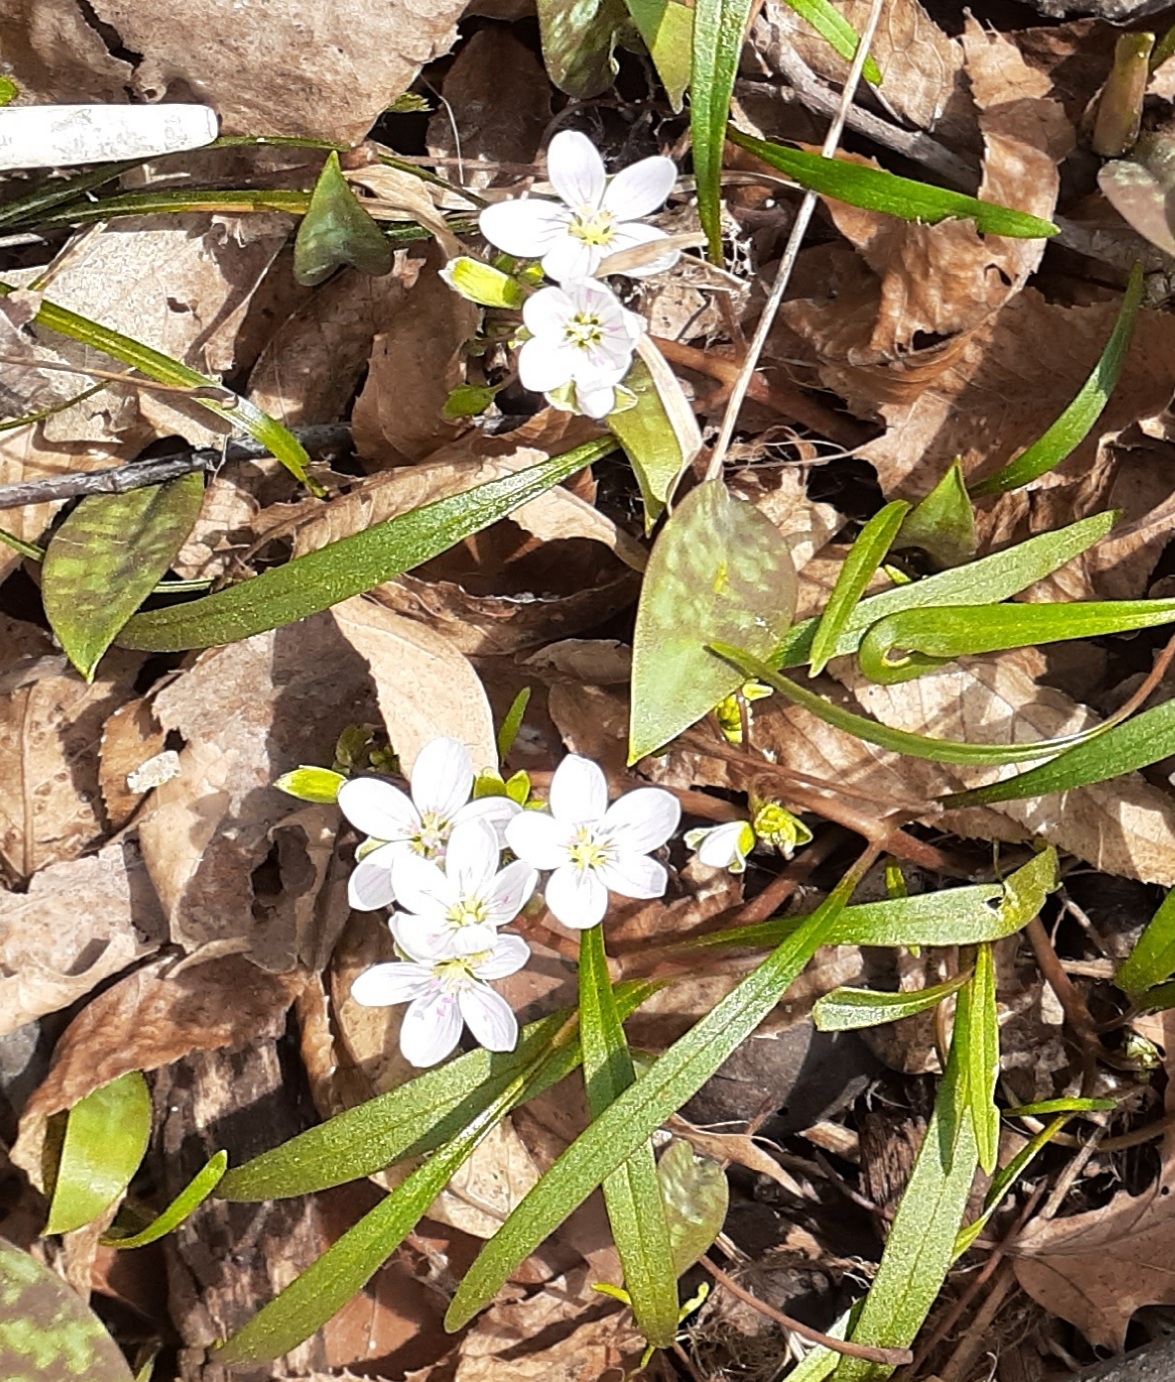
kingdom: Plantae
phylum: Tracheophyta
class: Magnoliopsida
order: Caryophyllales
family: Montiaceae
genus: Claytonia
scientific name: Claytonia virginica
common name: Virginia springbeauty
